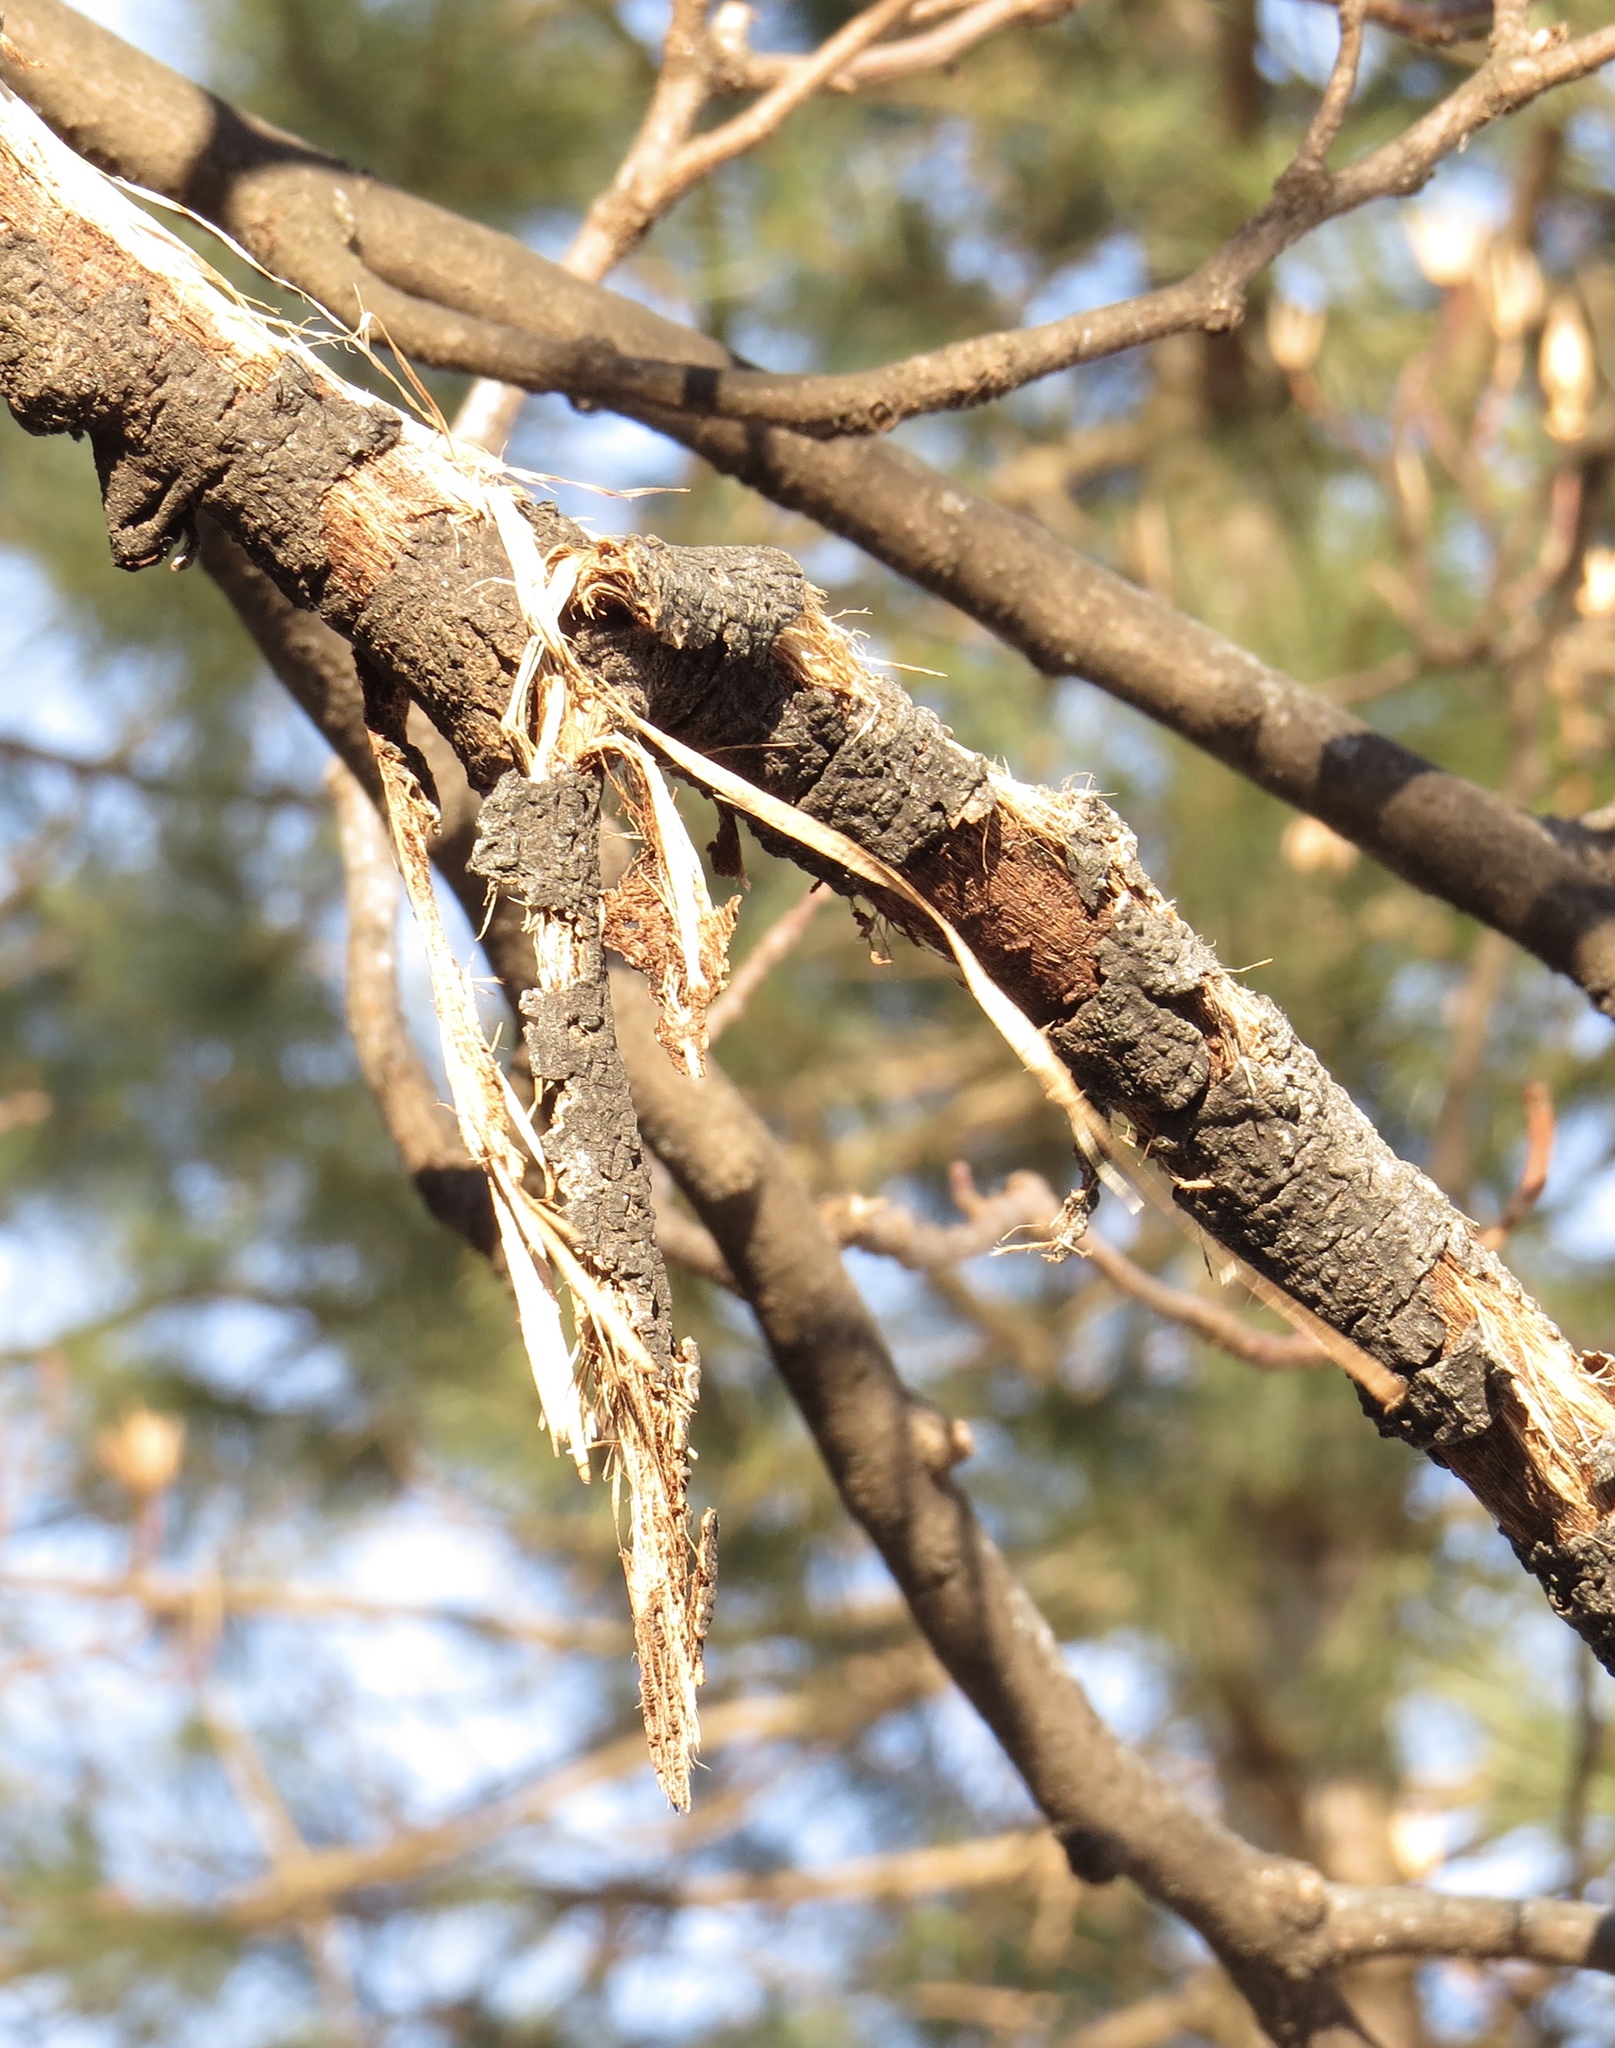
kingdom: Plantae
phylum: Tracheophyta
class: Magnoliopsida
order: Magnoliales
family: Magnoliaceae
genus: Liriodendron
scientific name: Liriodendron tulipifera
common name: Tulip tree
